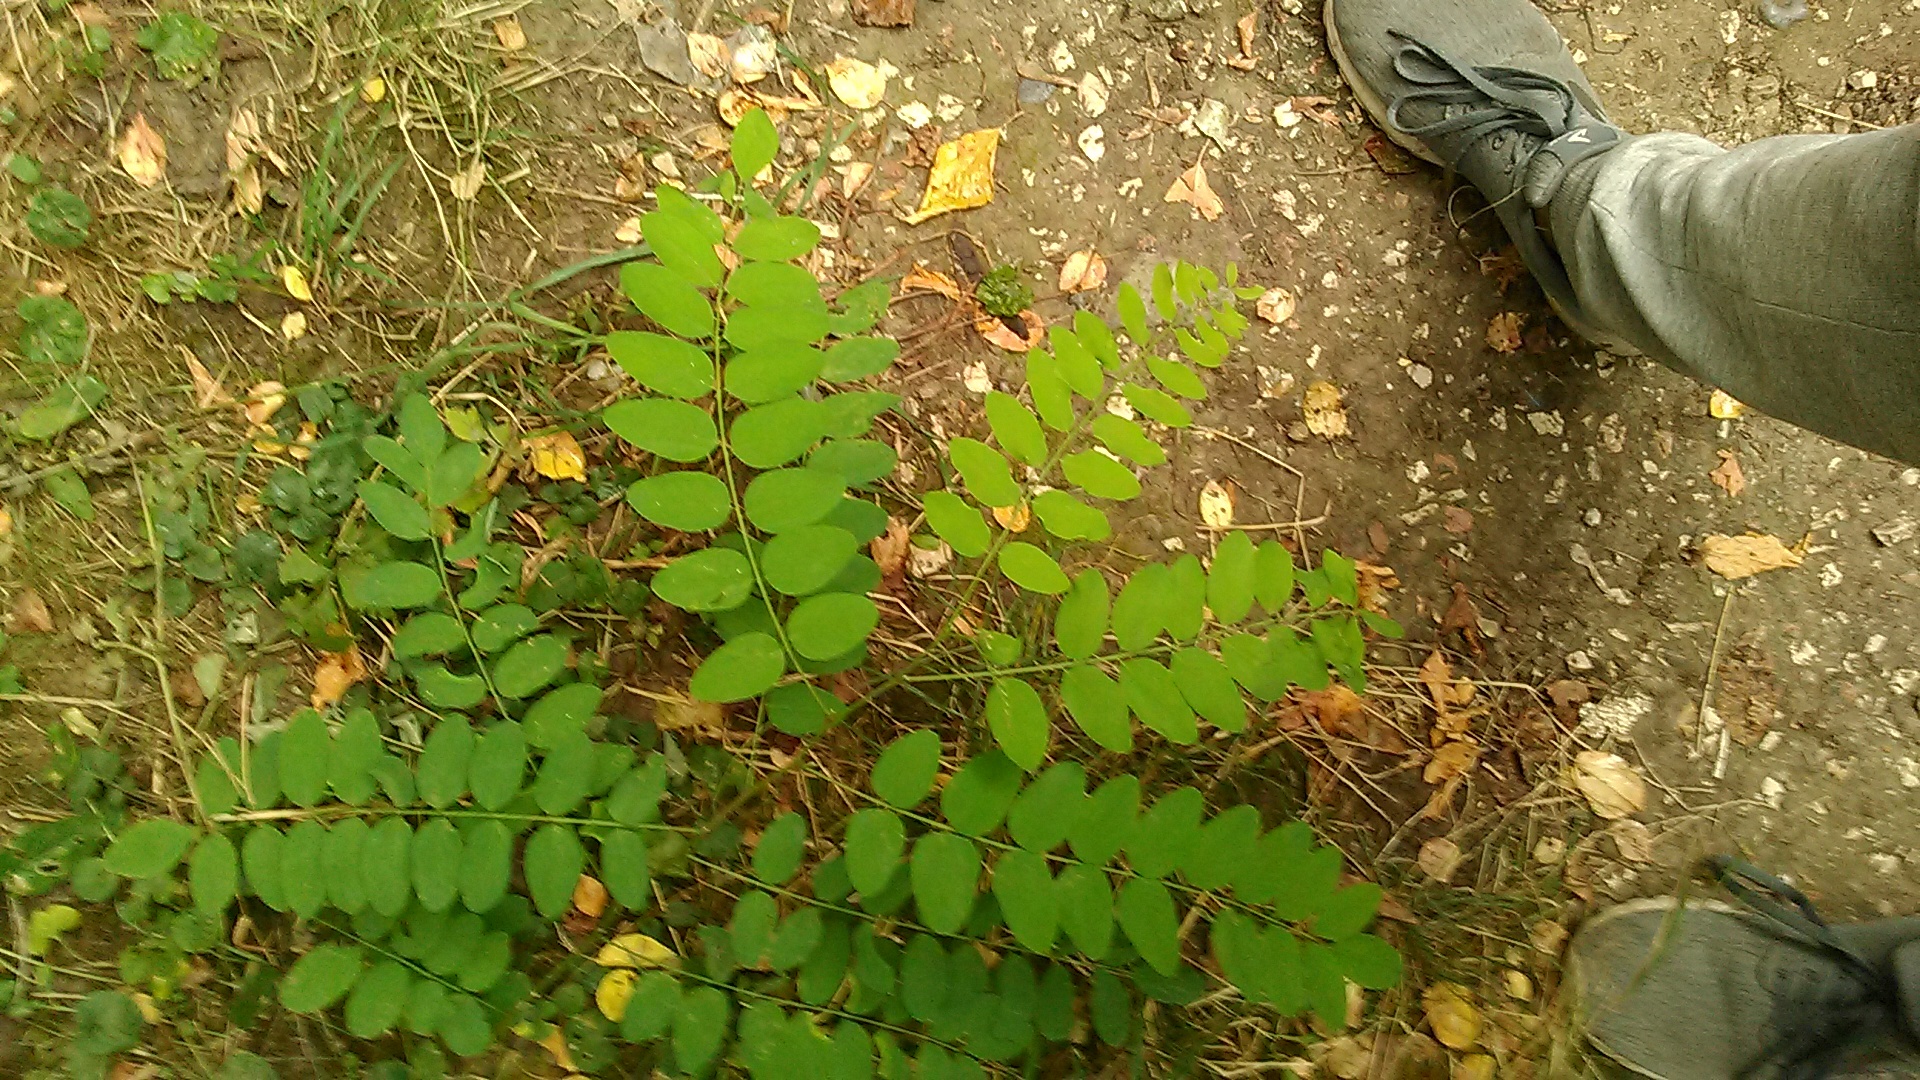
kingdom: Plantae
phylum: Tracheophyta
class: Magnoliopsida
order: Fabales
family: Fabaceae
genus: Astragalus
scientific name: Astragalus glycyphyllos
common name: Wild liquorice
